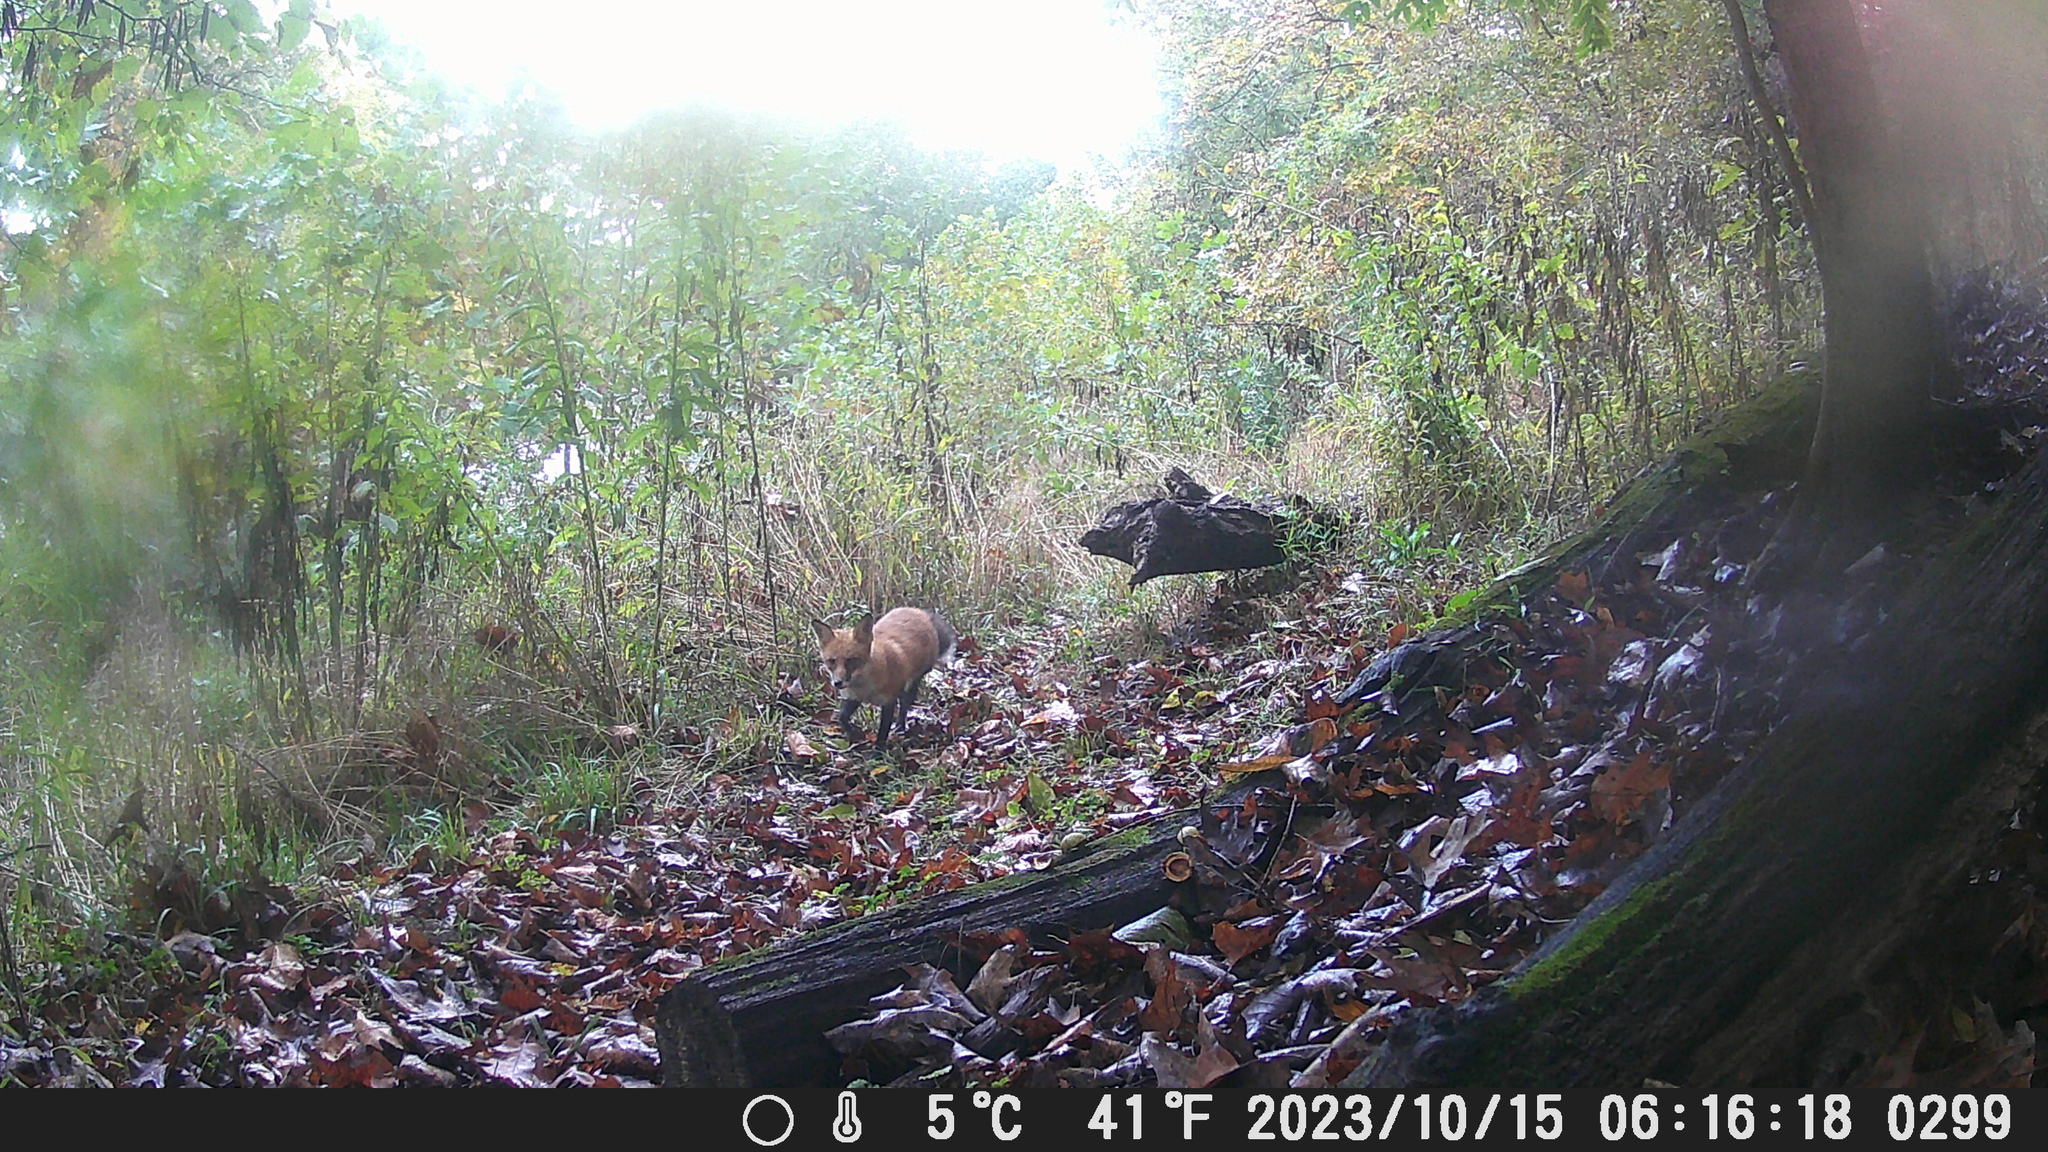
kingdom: Animalia
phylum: Chordata
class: Mammalia
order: Carnivora
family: Canidae
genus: Vulpes
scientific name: Vulpes vulpes
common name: Red fox
